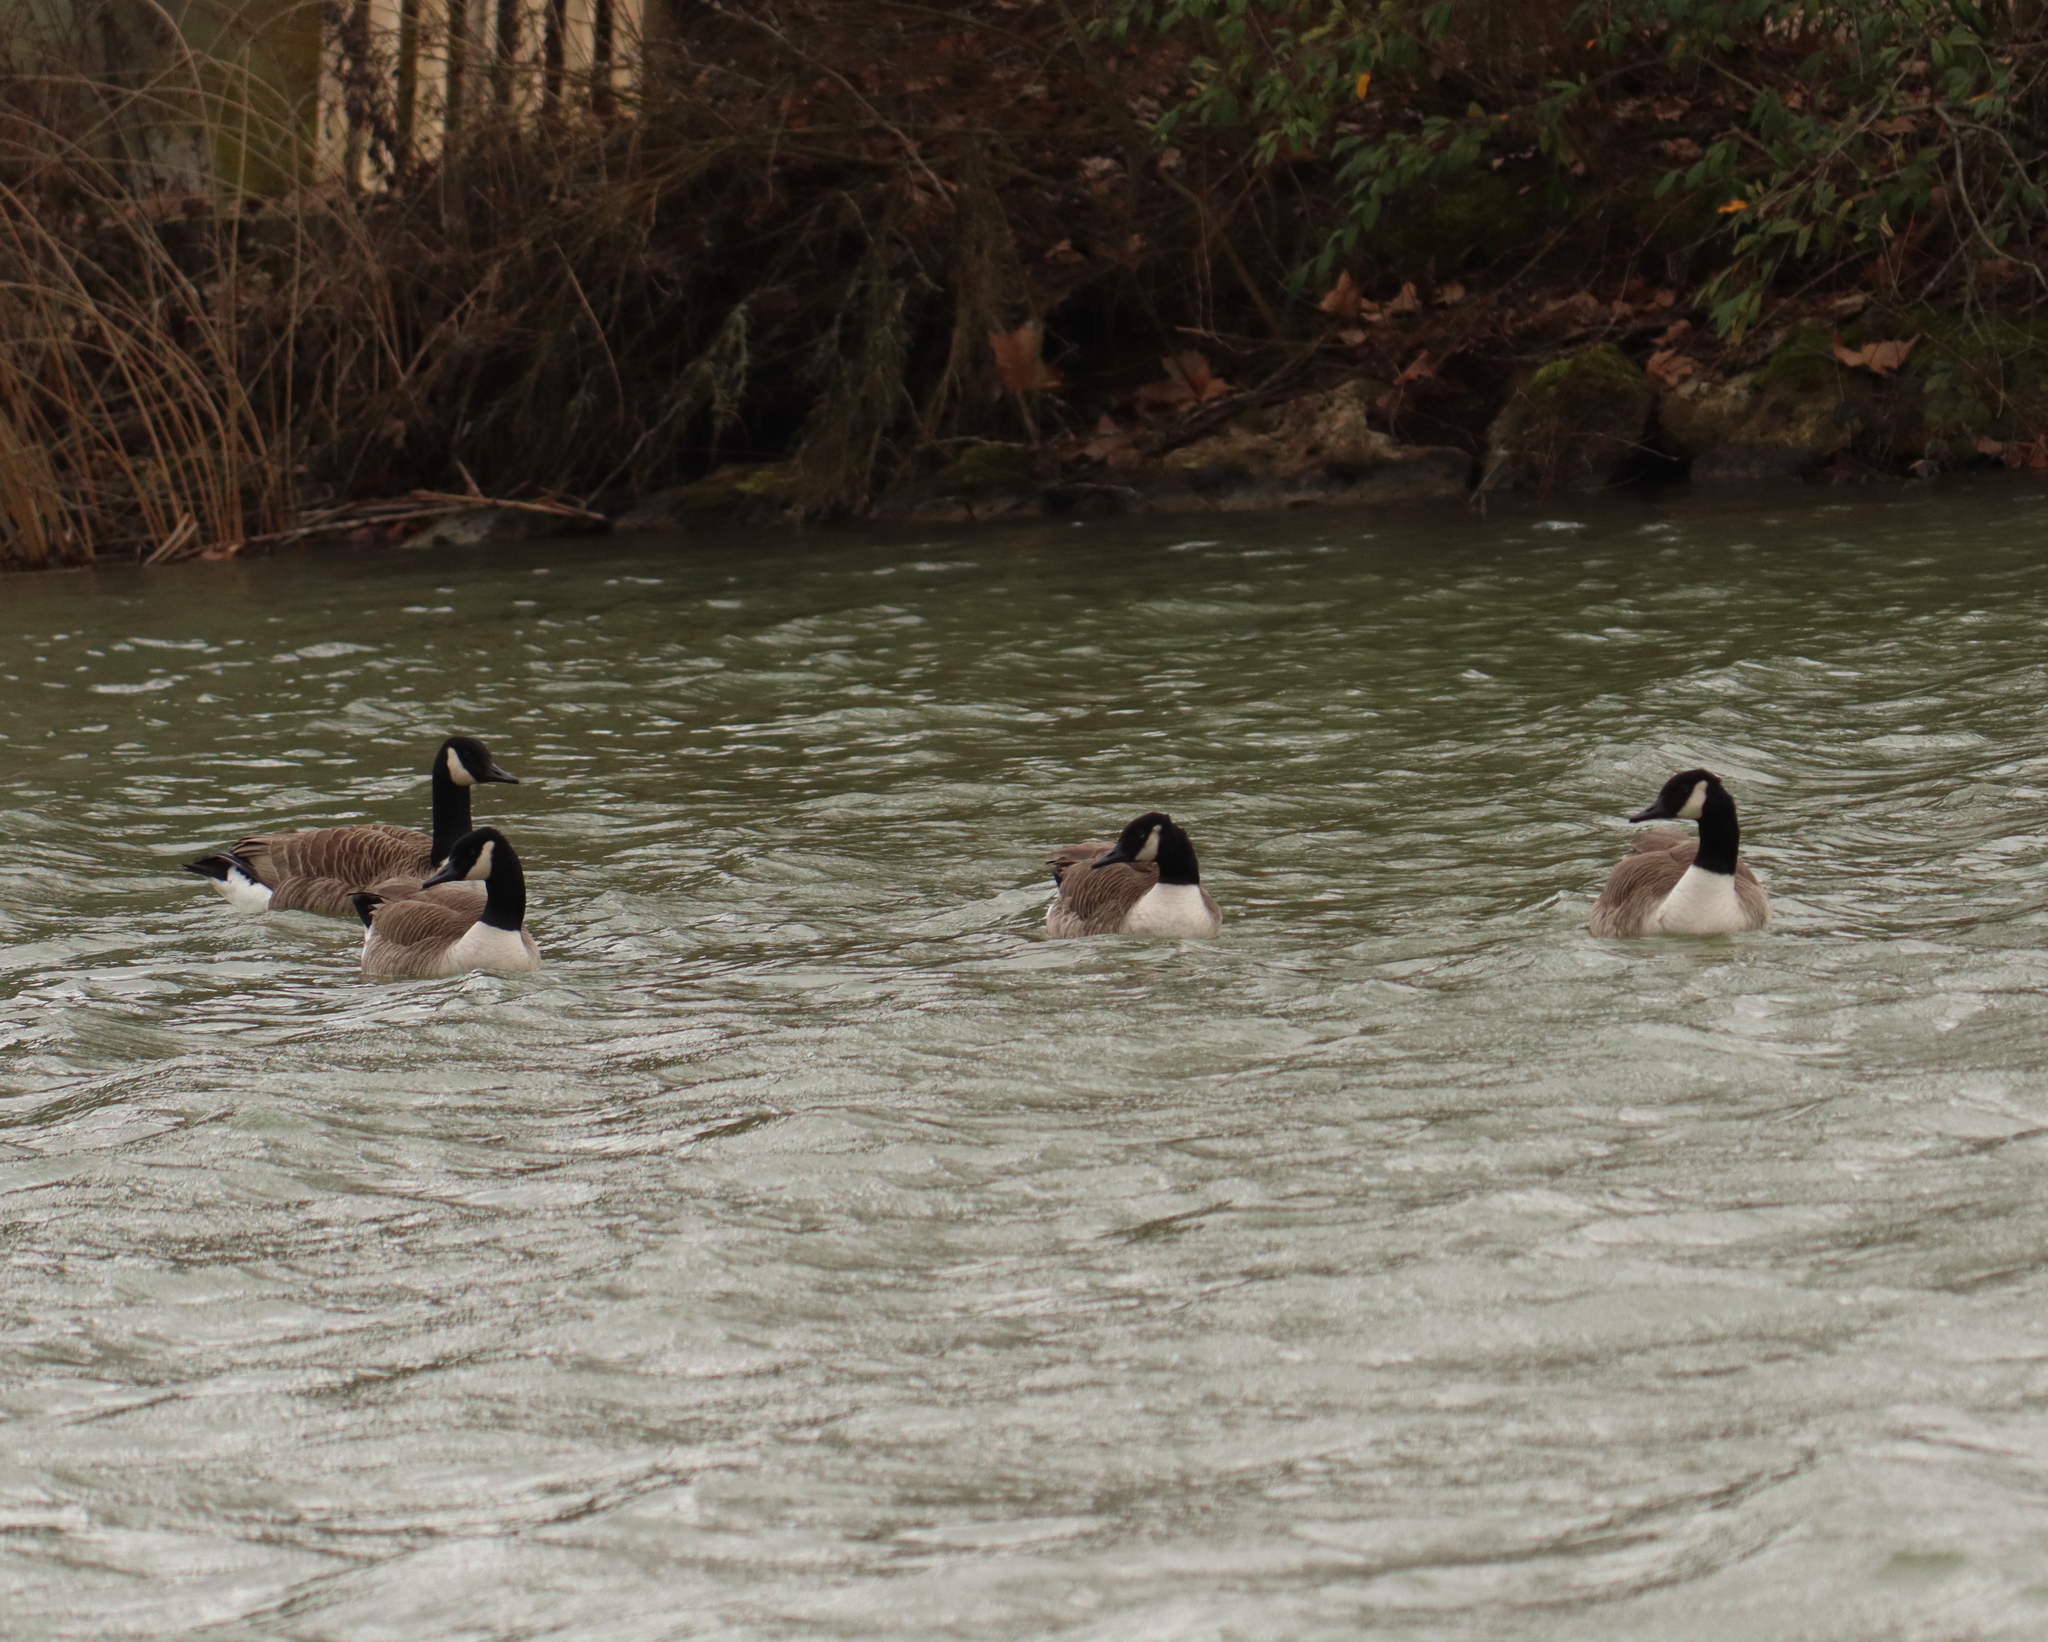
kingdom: Animalia
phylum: Chordata
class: Aves
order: Anseriformes
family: Anatidae
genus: Branta
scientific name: Branta canadensis
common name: Canada goose
